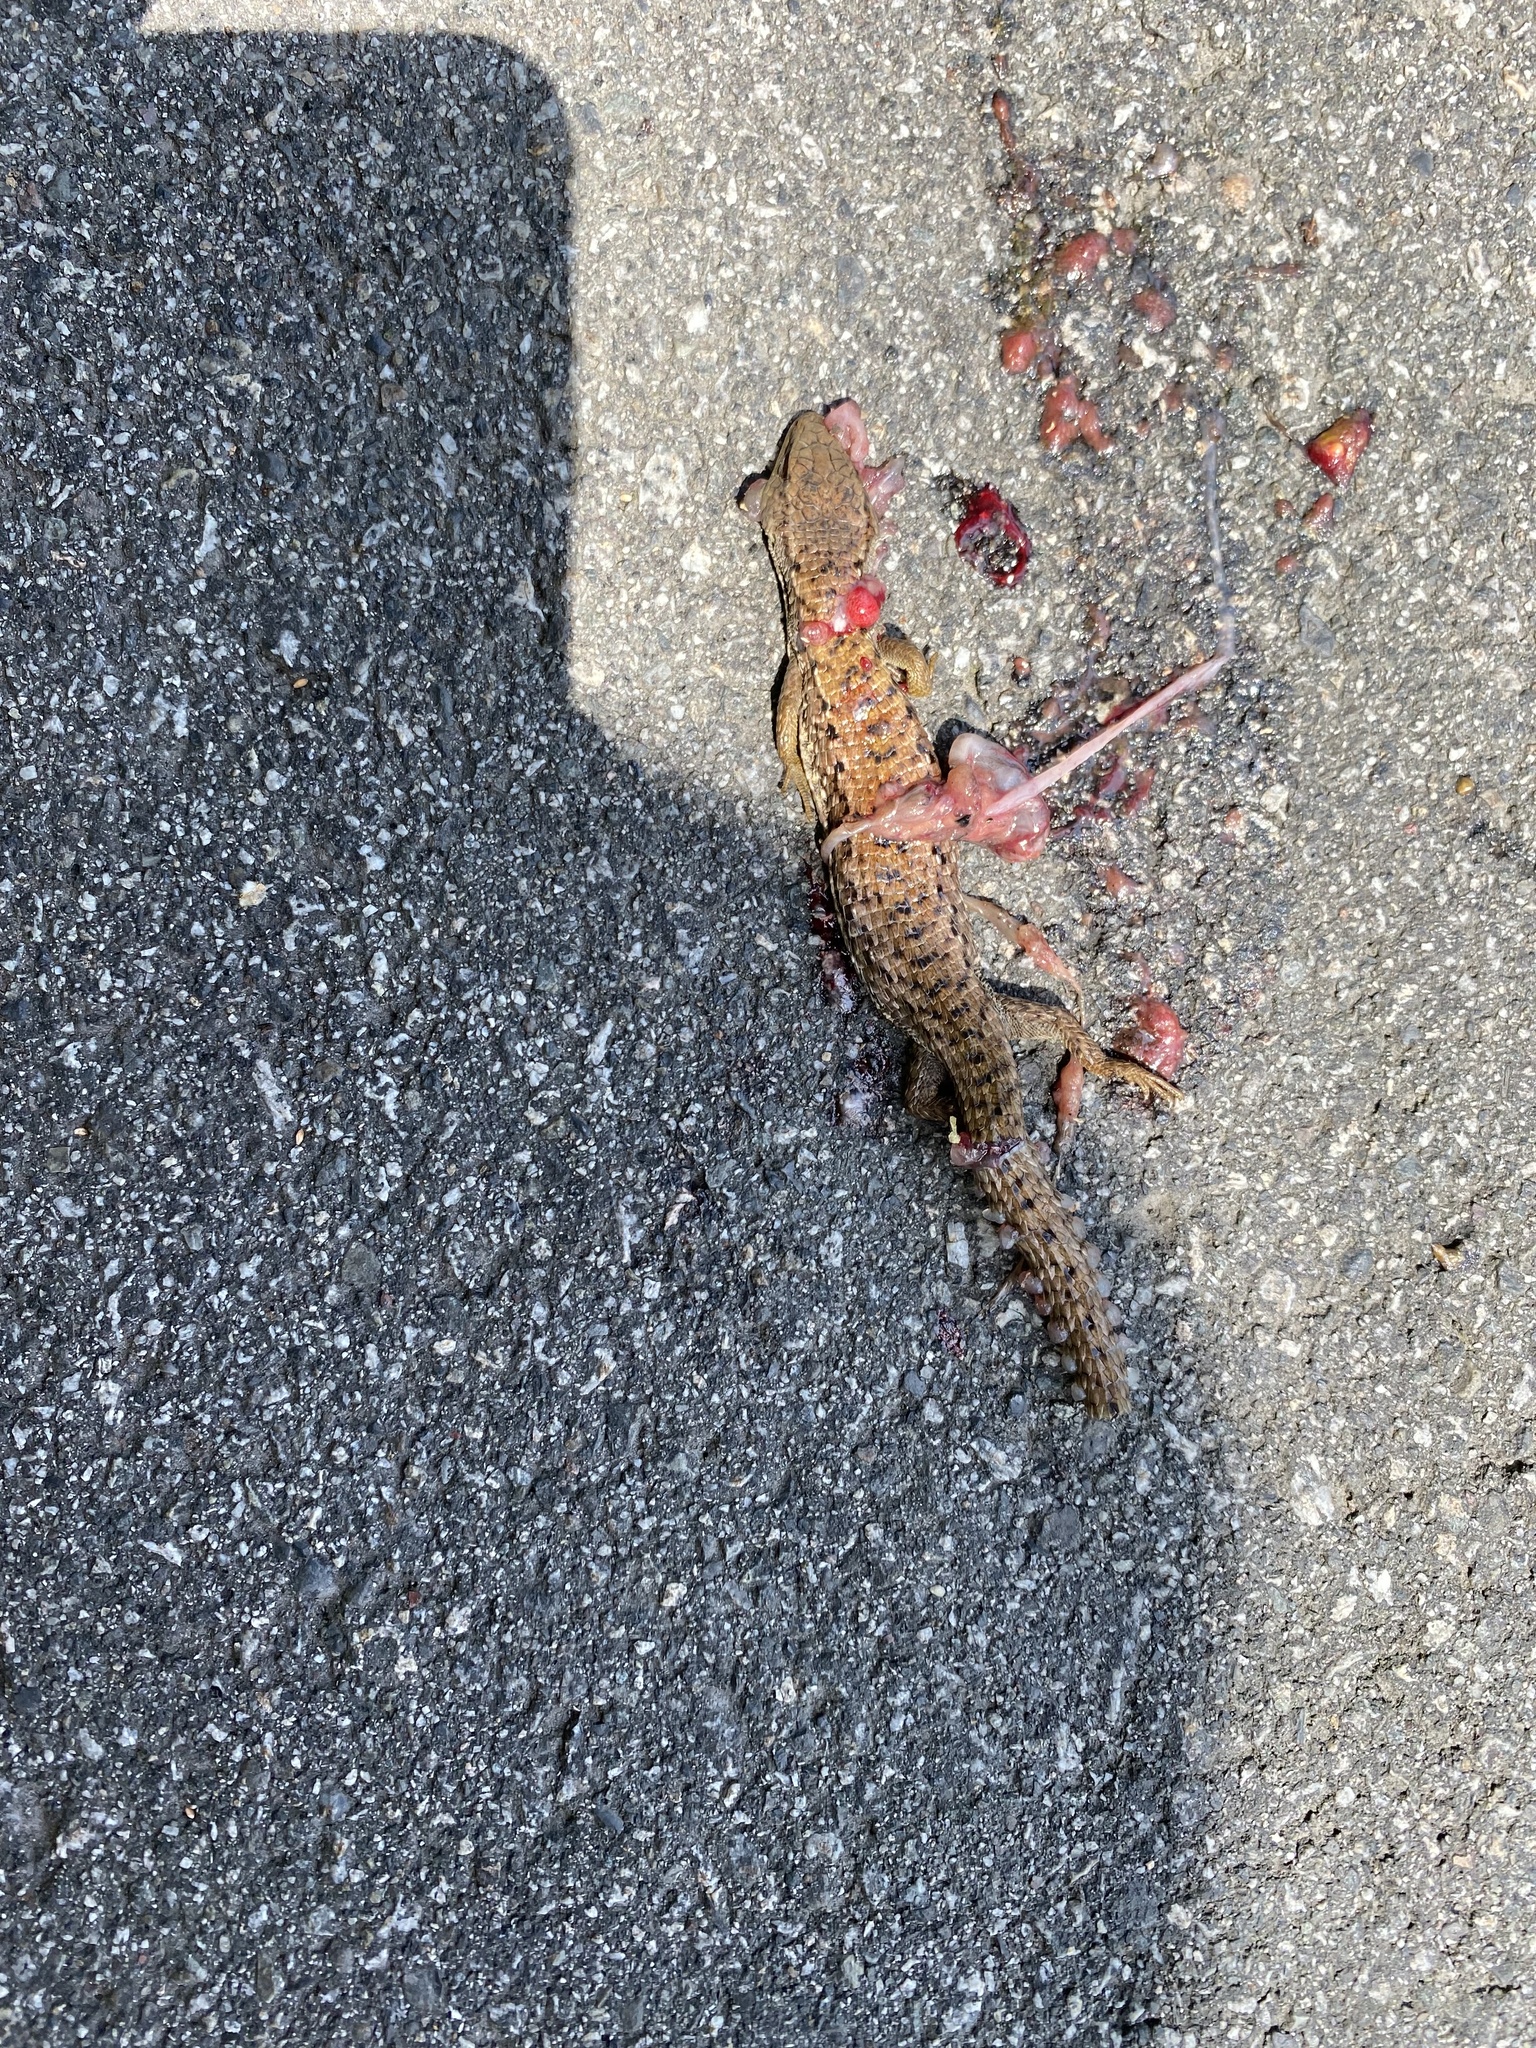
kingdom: Animalia
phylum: Chordata
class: Squamata
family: Anguidae
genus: Elgaria
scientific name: Elgaria coerulea
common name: Northern alligator lizard
